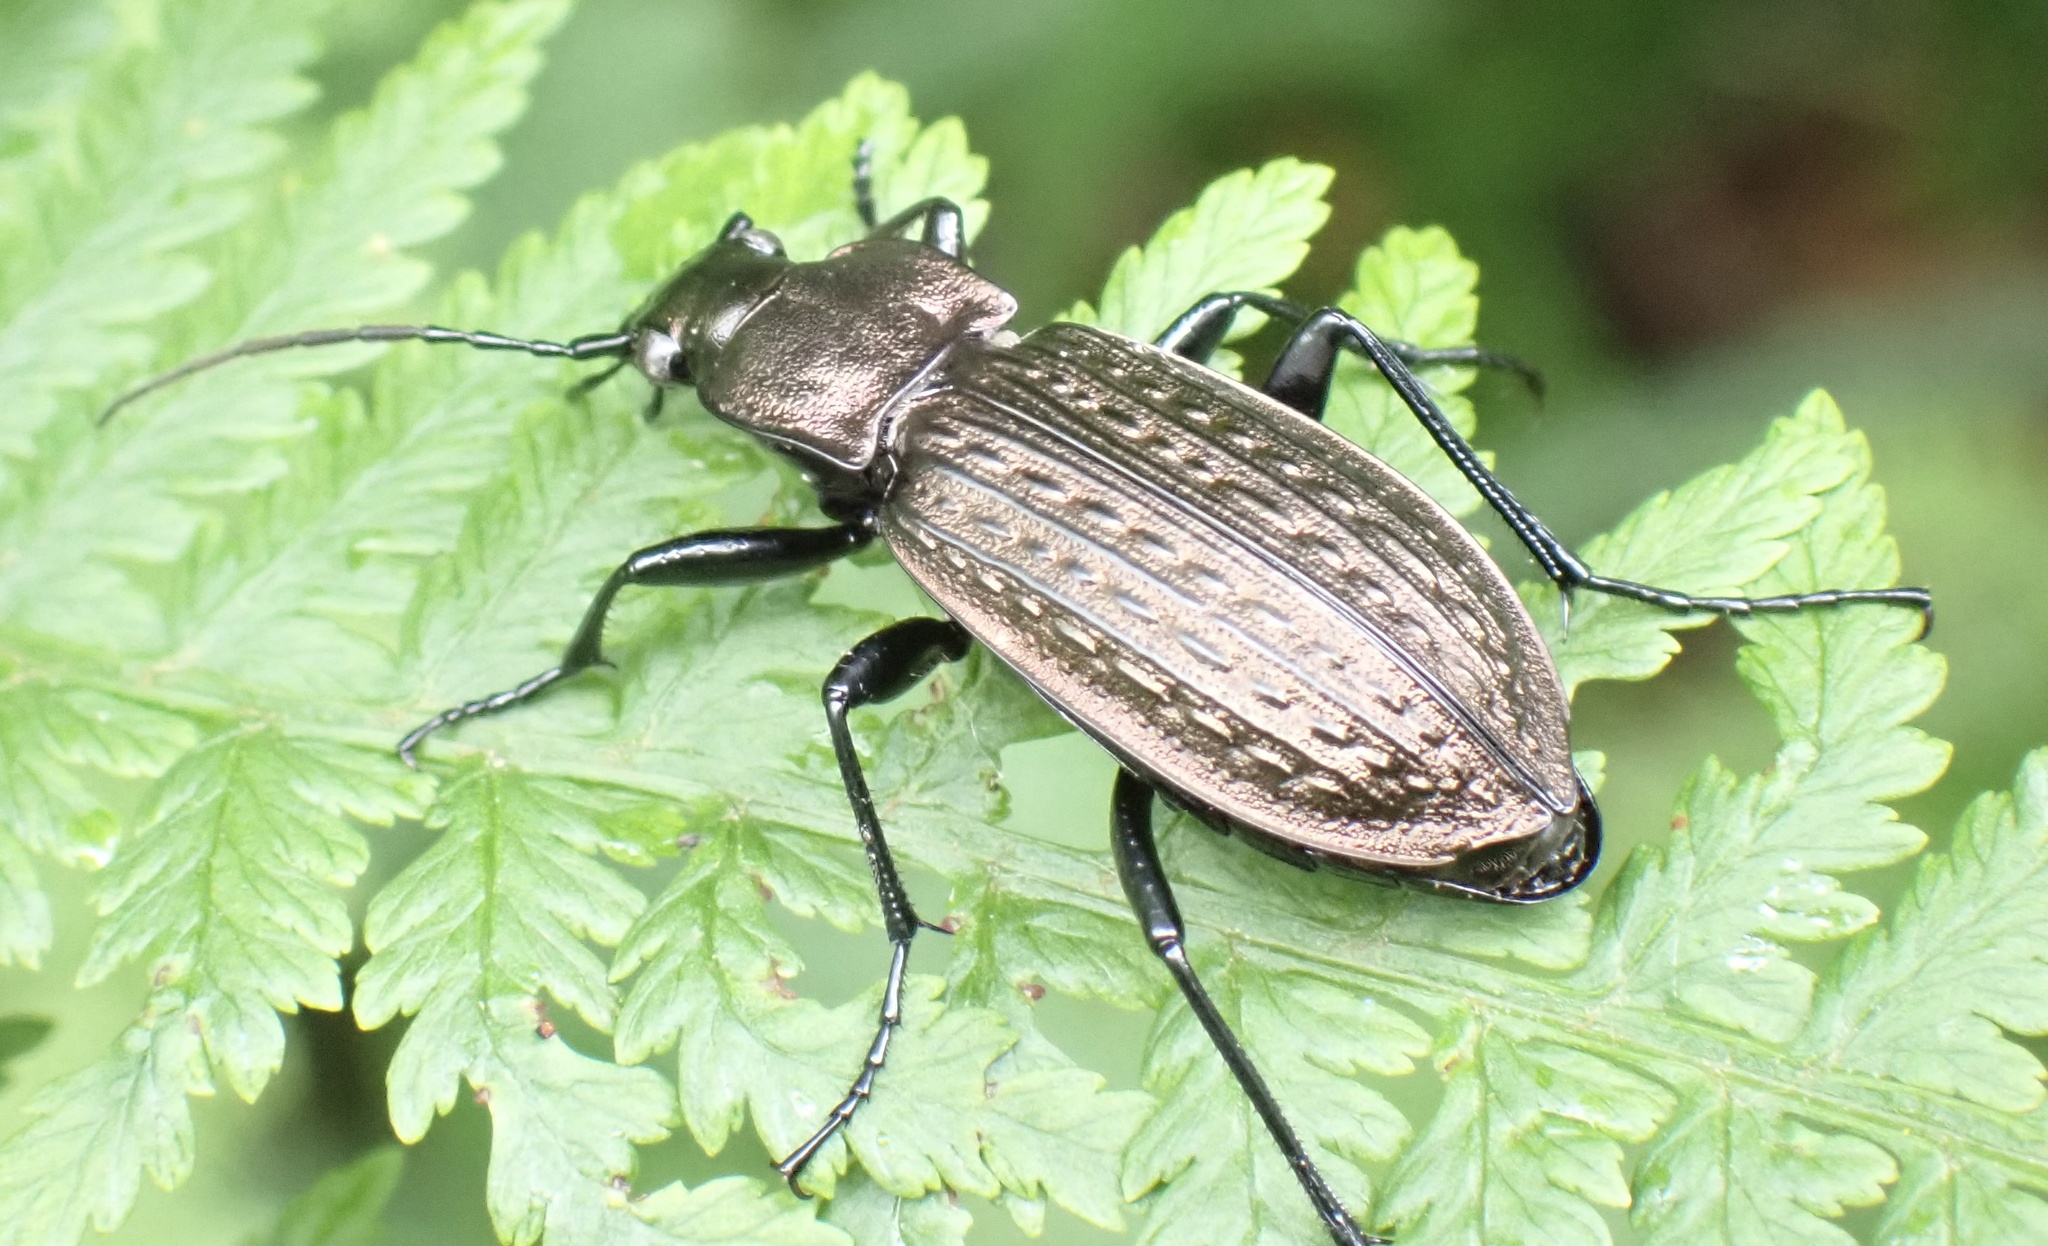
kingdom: Animalia
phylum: Arthropoda
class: Insecta
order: Coleoptera
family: Carabidae
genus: Carabus
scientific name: Carabus granulatus
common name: Granulate ground beetle
